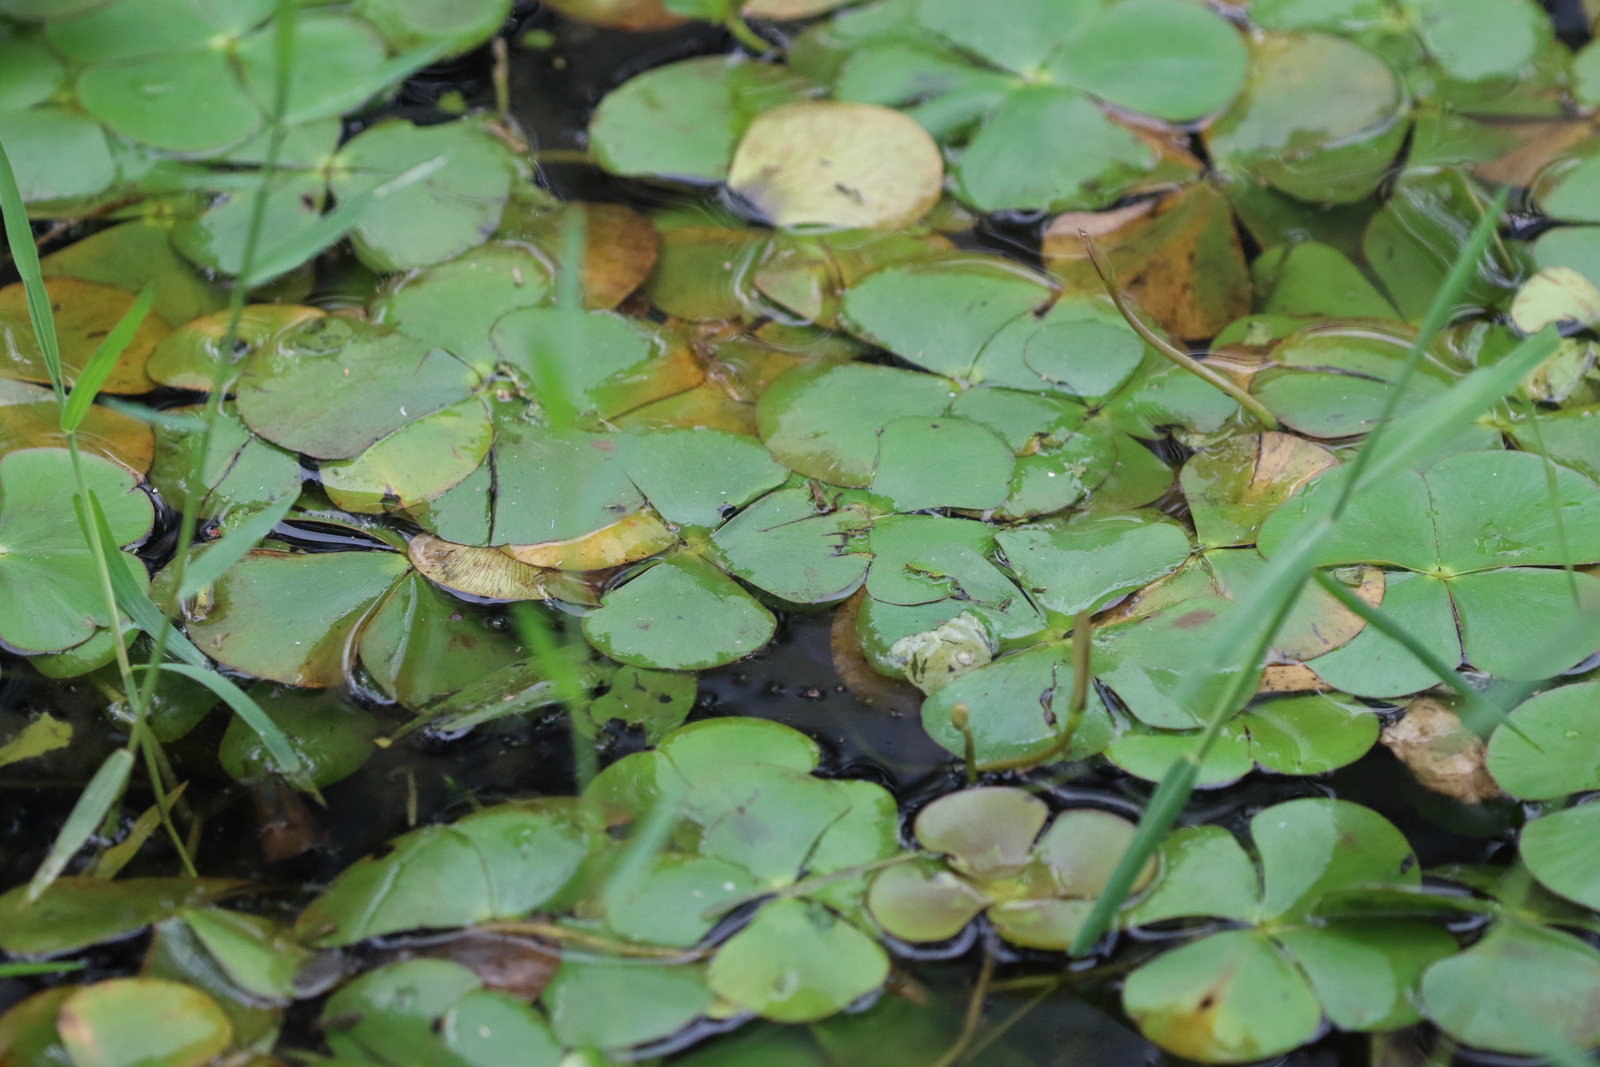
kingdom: Plantae
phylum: Tracheophyta
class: Polypodiopsida
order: Salviniales
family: Marsileaceae
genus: Marsilea
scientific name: Marsilea mutica
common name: Australian water-clover
